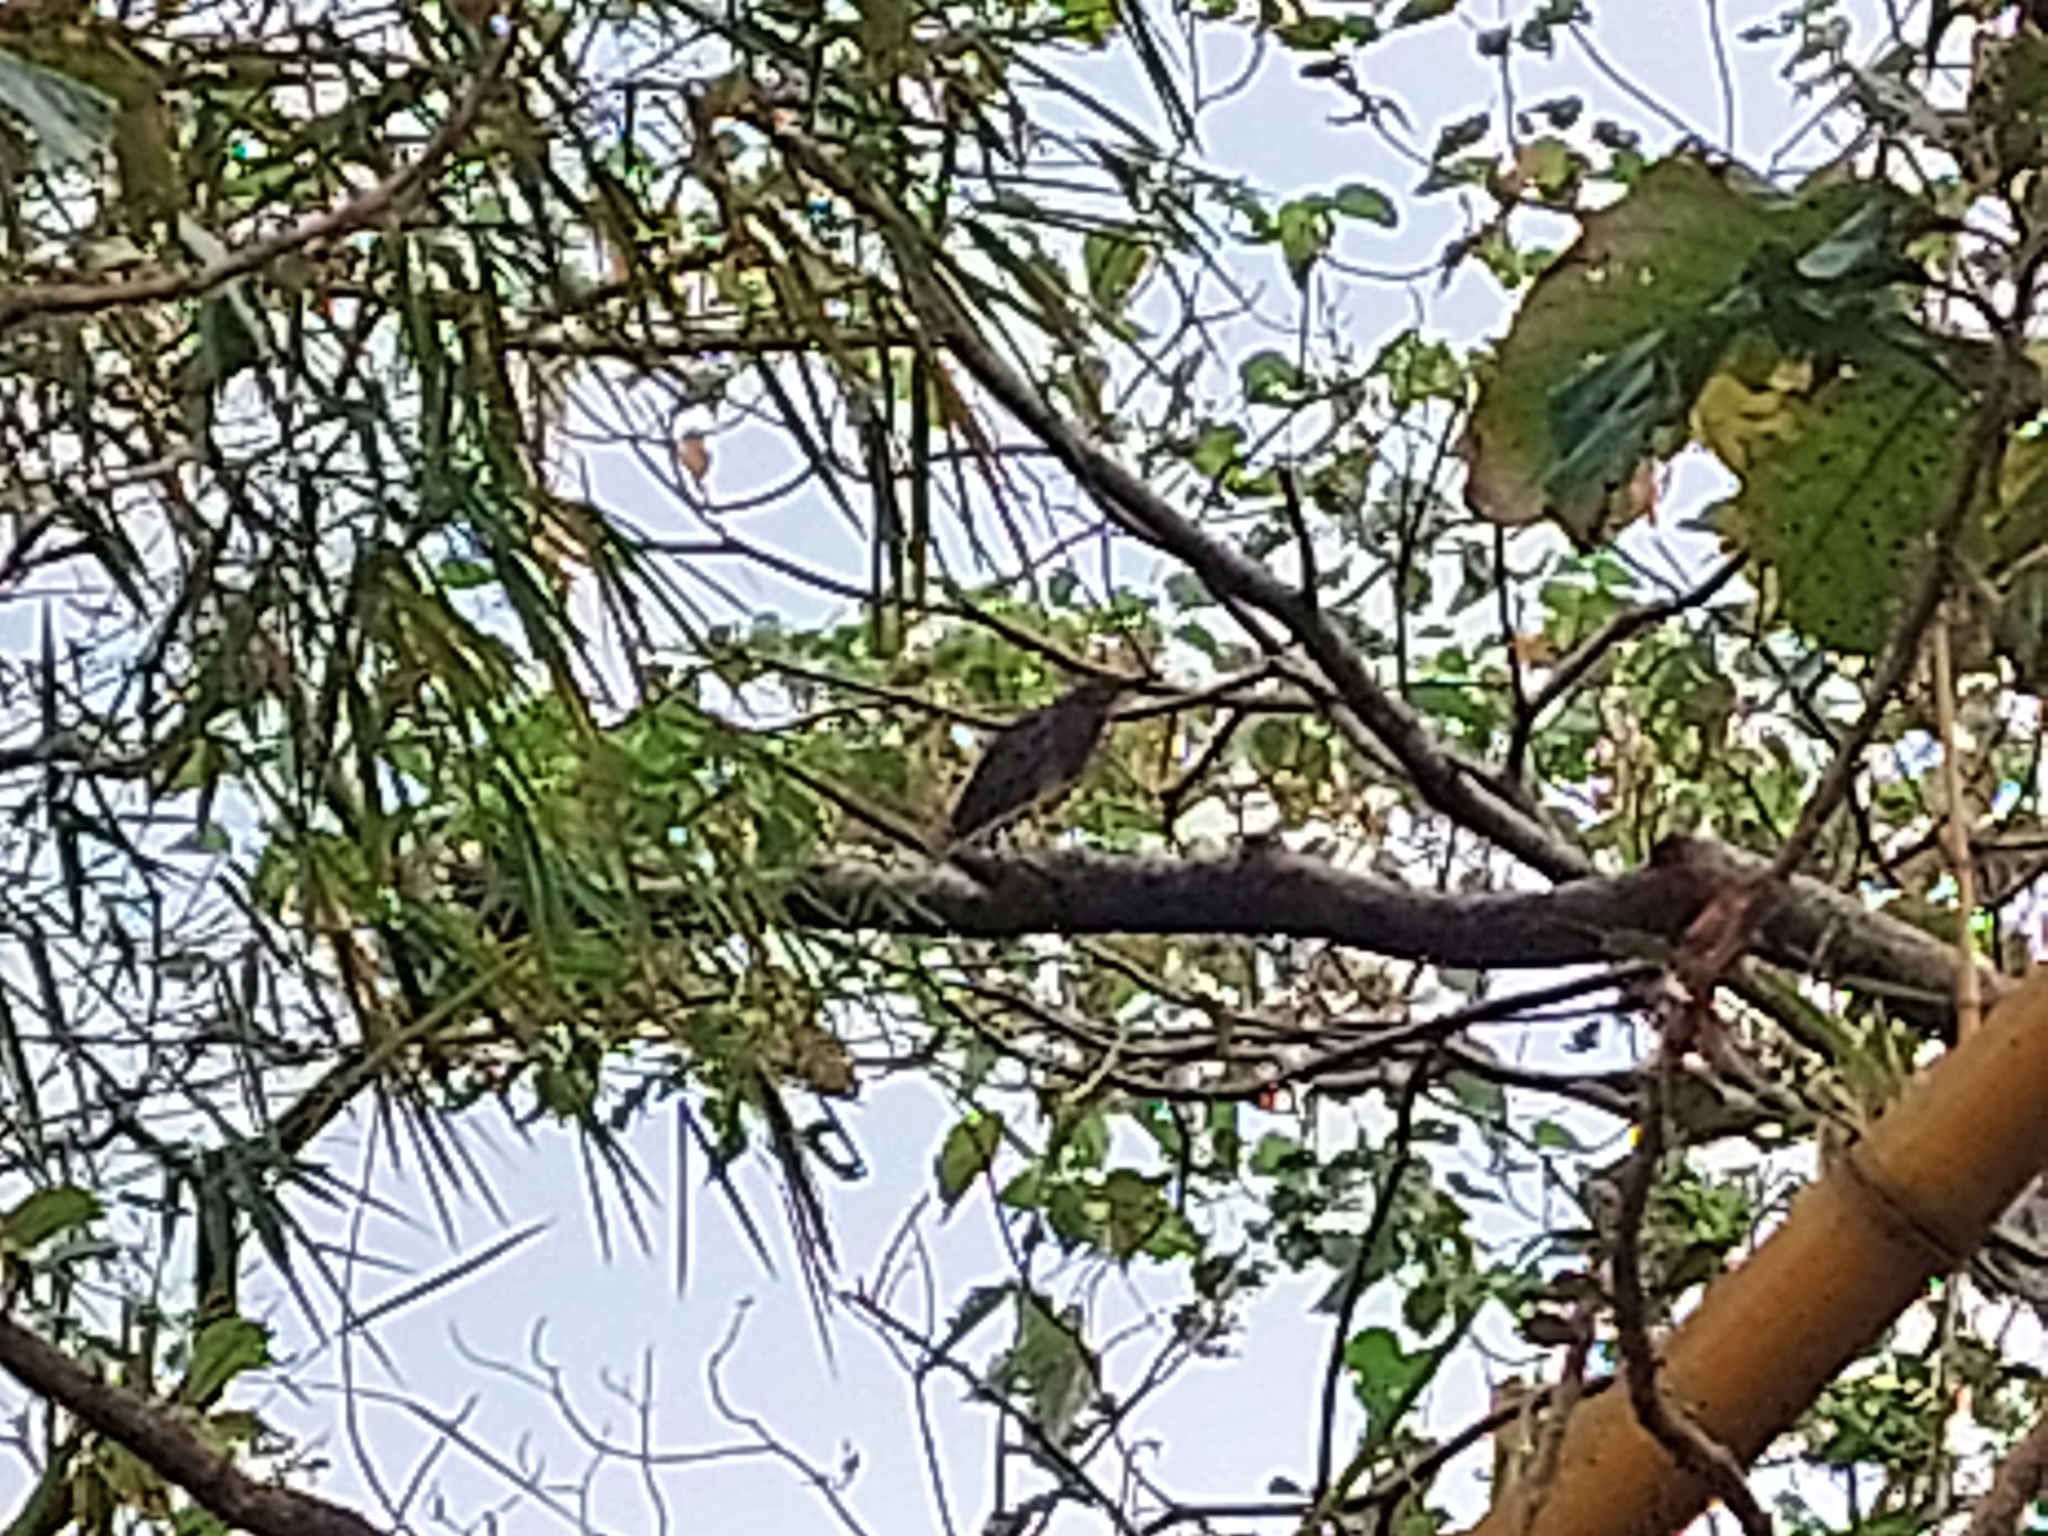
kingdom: Animalia
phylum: Chordata
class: Aves
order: Pelecaniformes
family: Ardeidae
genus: Butorides
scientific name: Butorides virescens
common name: Green heron
